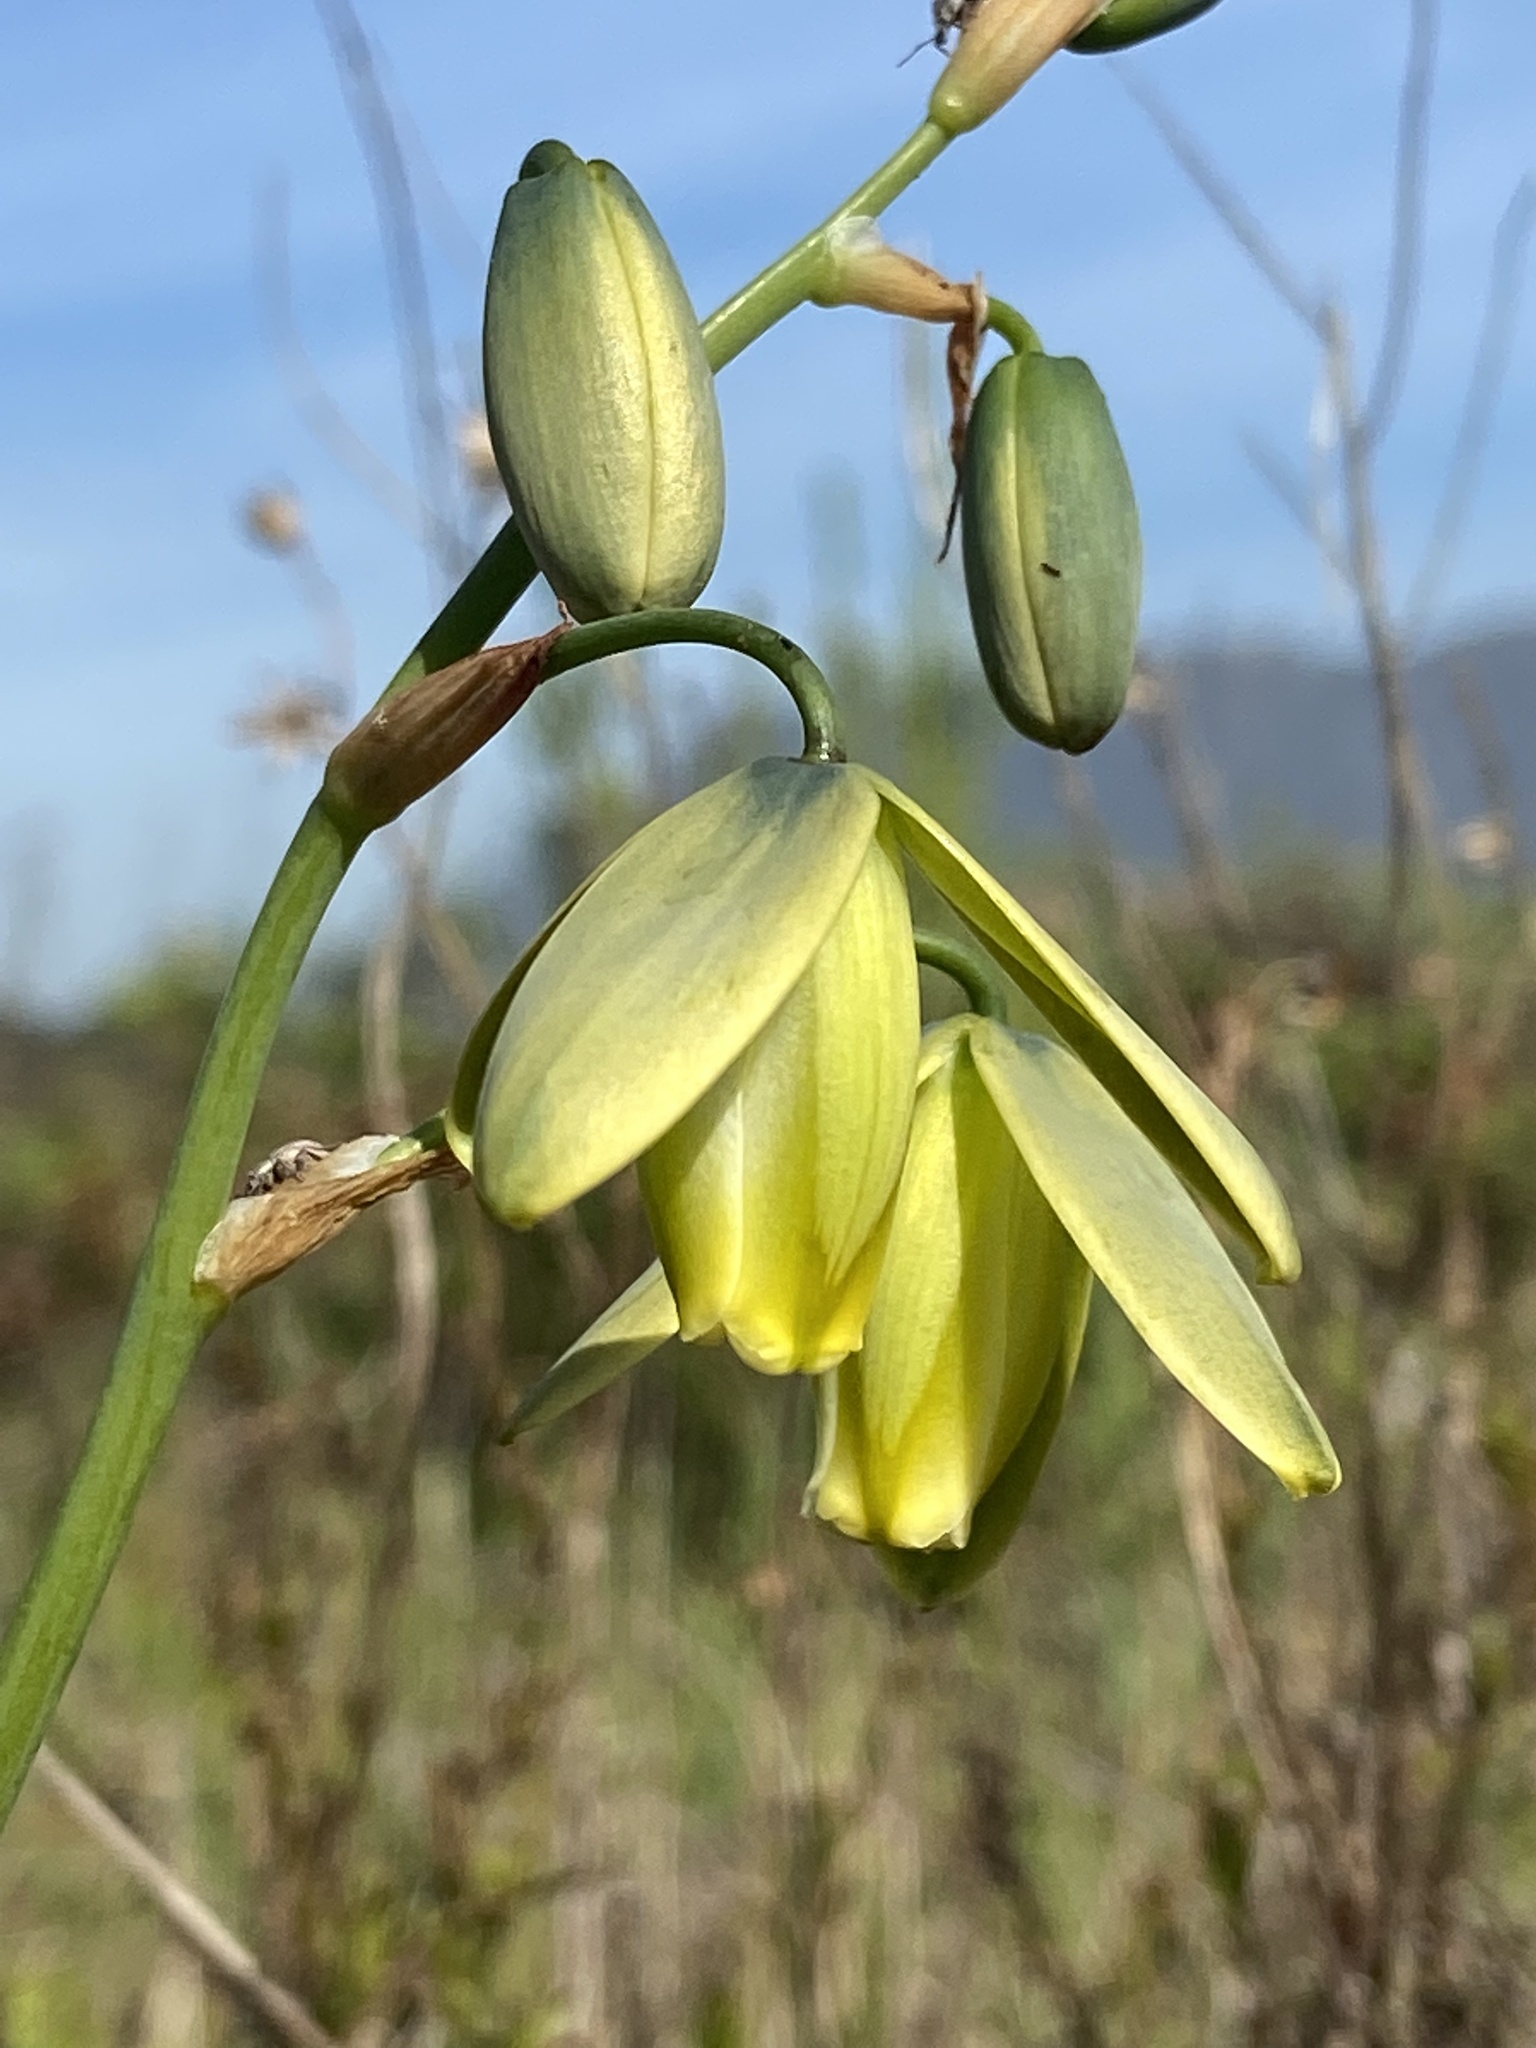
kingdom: Plantae
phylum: Tracheophyta
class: Liliopsida
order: Asparagales
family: Asparagaceae
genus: Albuca
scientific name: Albuca fragrans
